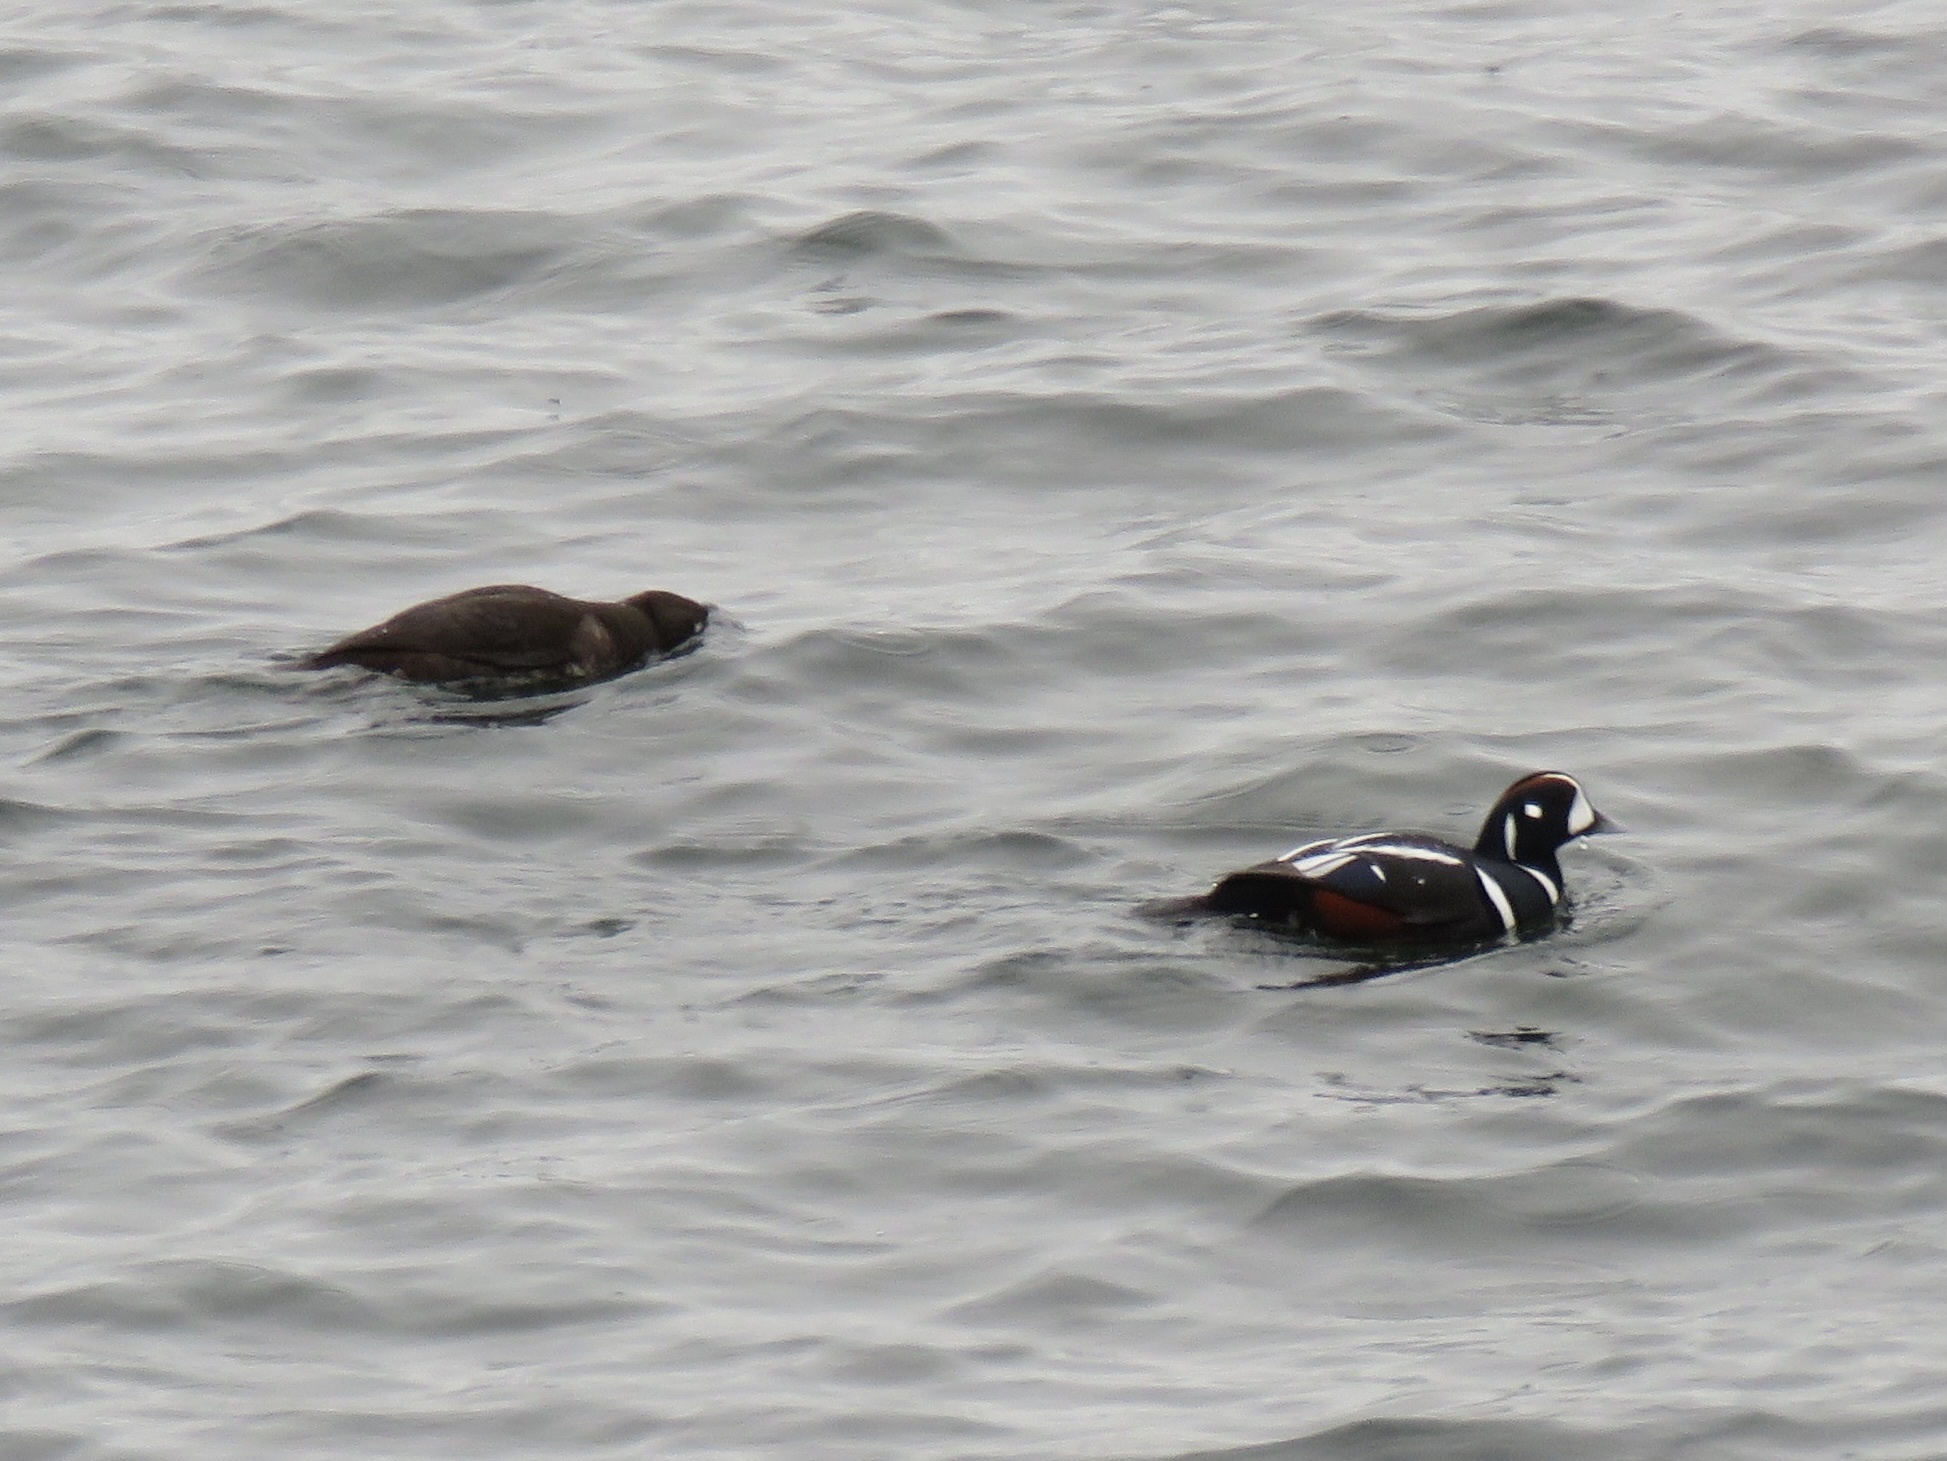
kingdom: Animalia
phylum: Chordata
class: Aves
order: Anseriformes
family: Anatidae
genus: Histrionicus
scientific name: Histrionicus histrionicus
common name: Harlequin duck
